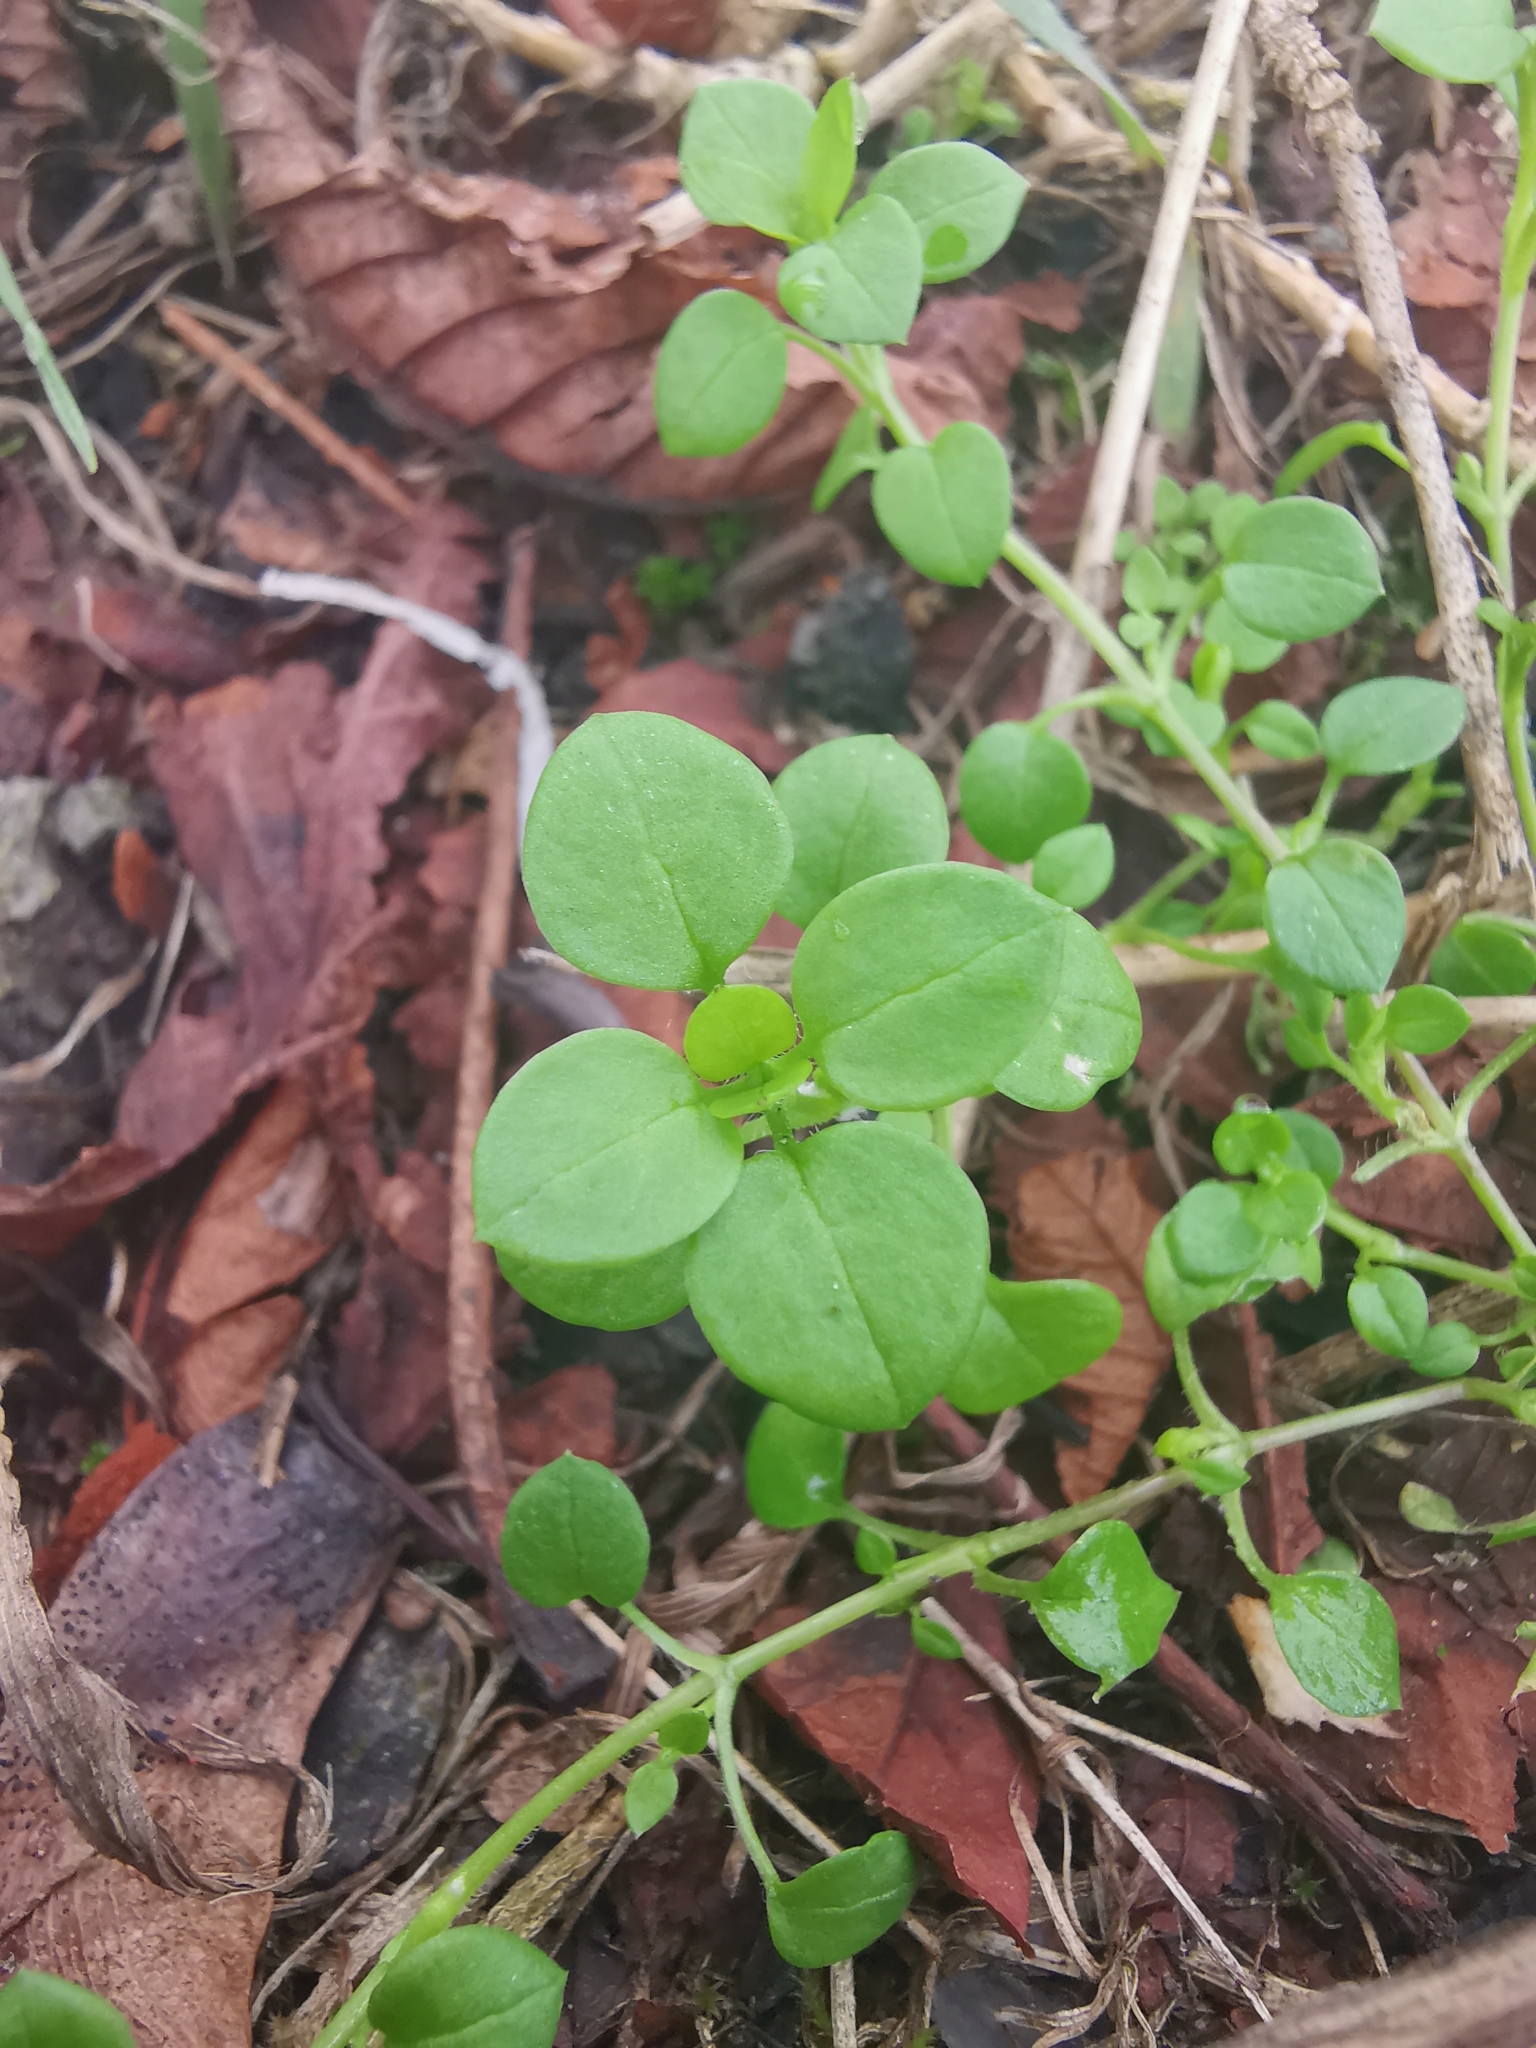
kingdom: Plantae
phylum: Tracheophyta
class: Magnoliopsida
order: Caryophyllales
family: Caryophyllaceae
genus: Stellaria
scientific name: Stellaria media
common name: Common chickweed
